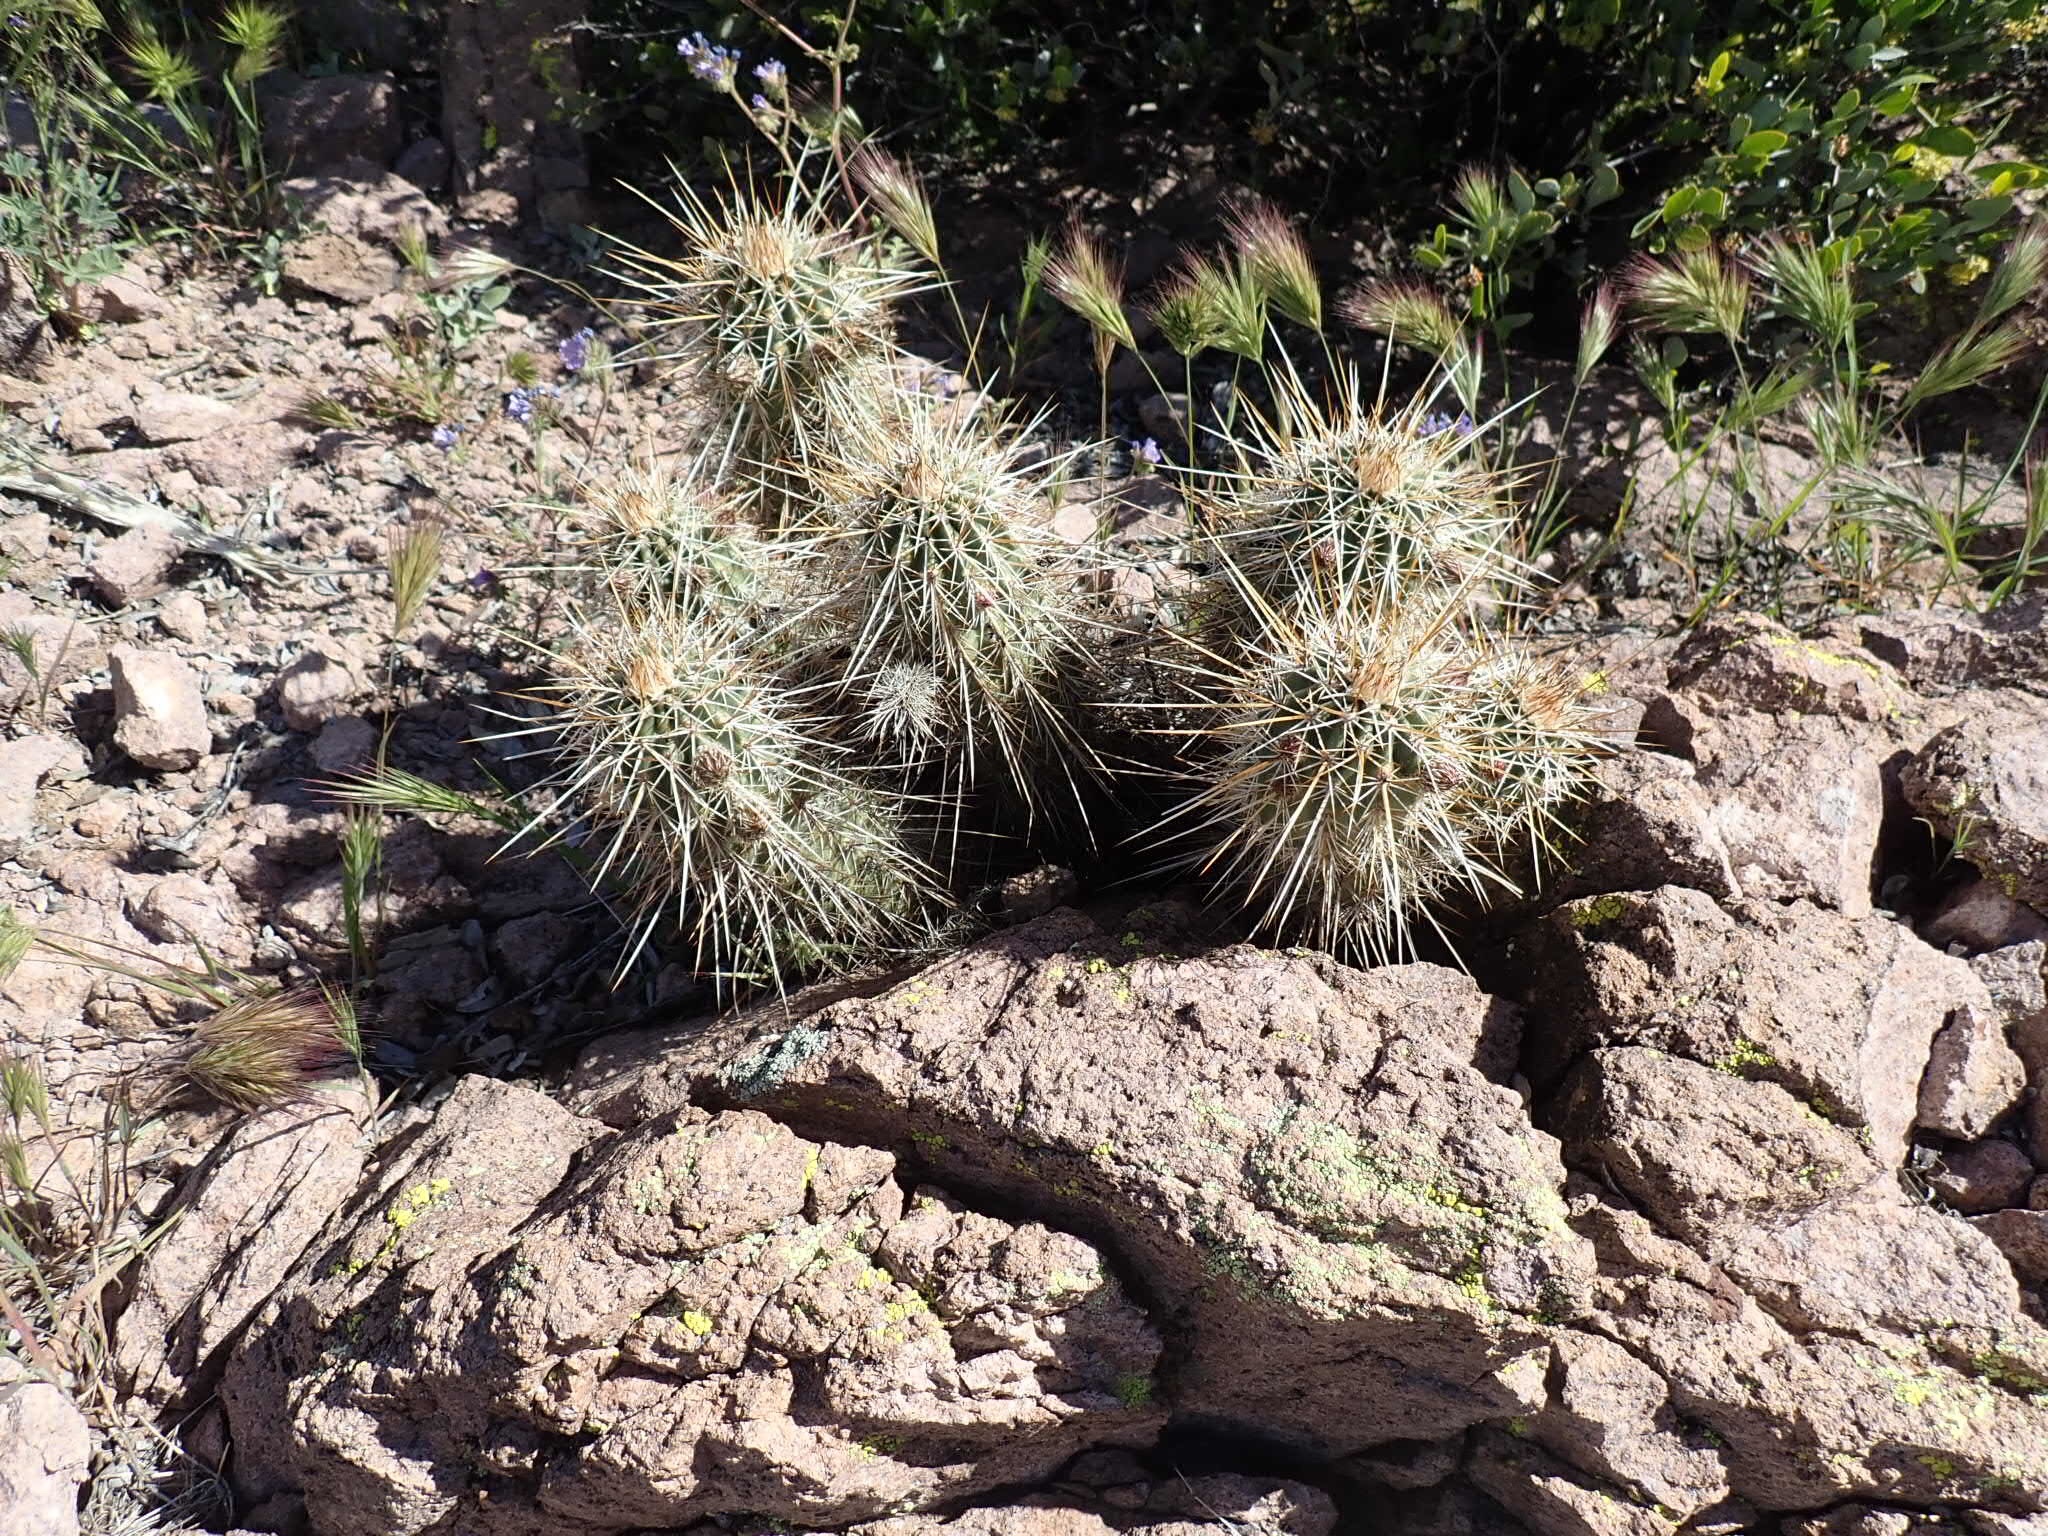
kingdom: Plantae
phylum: Tracheophyta
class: Magnoliopsida
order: Caryophyllales
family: Cactaceae
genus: Echinocereus
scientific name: Echinocereus fasciculatus
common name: Bundle hedgehog
